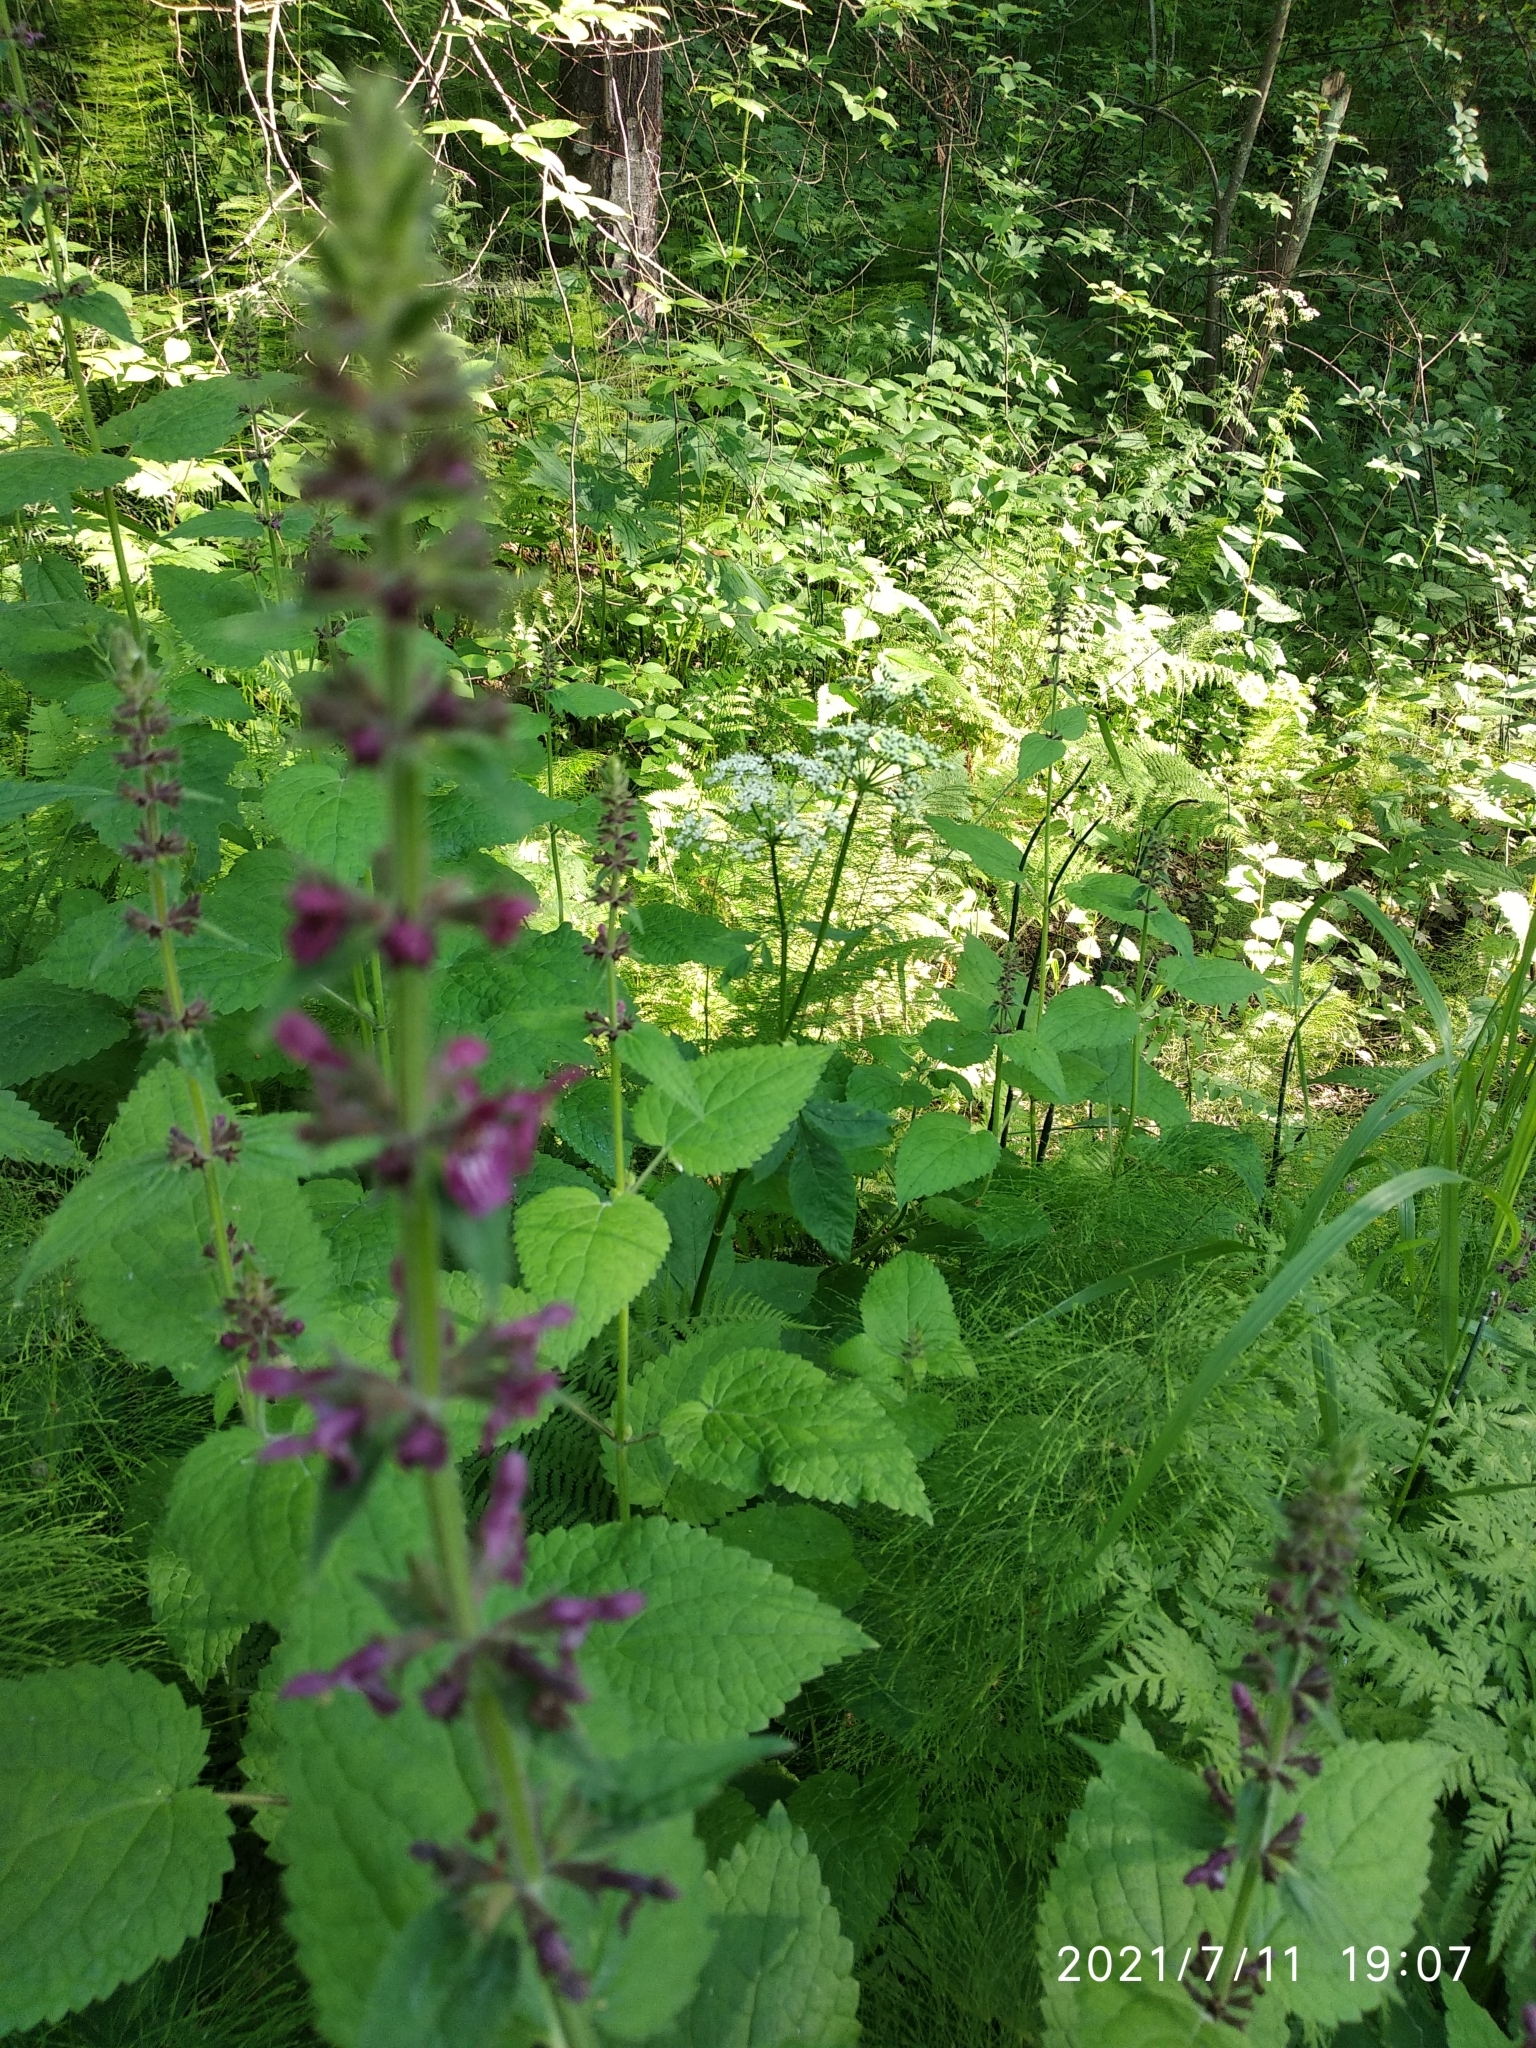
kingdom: Plantae
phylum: Tracheophyta
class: Magnoliopsida
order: Lamiales
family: Lamiaceae
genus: Stachys
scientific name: Stachys sylvatica
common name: Hedge woundwort
